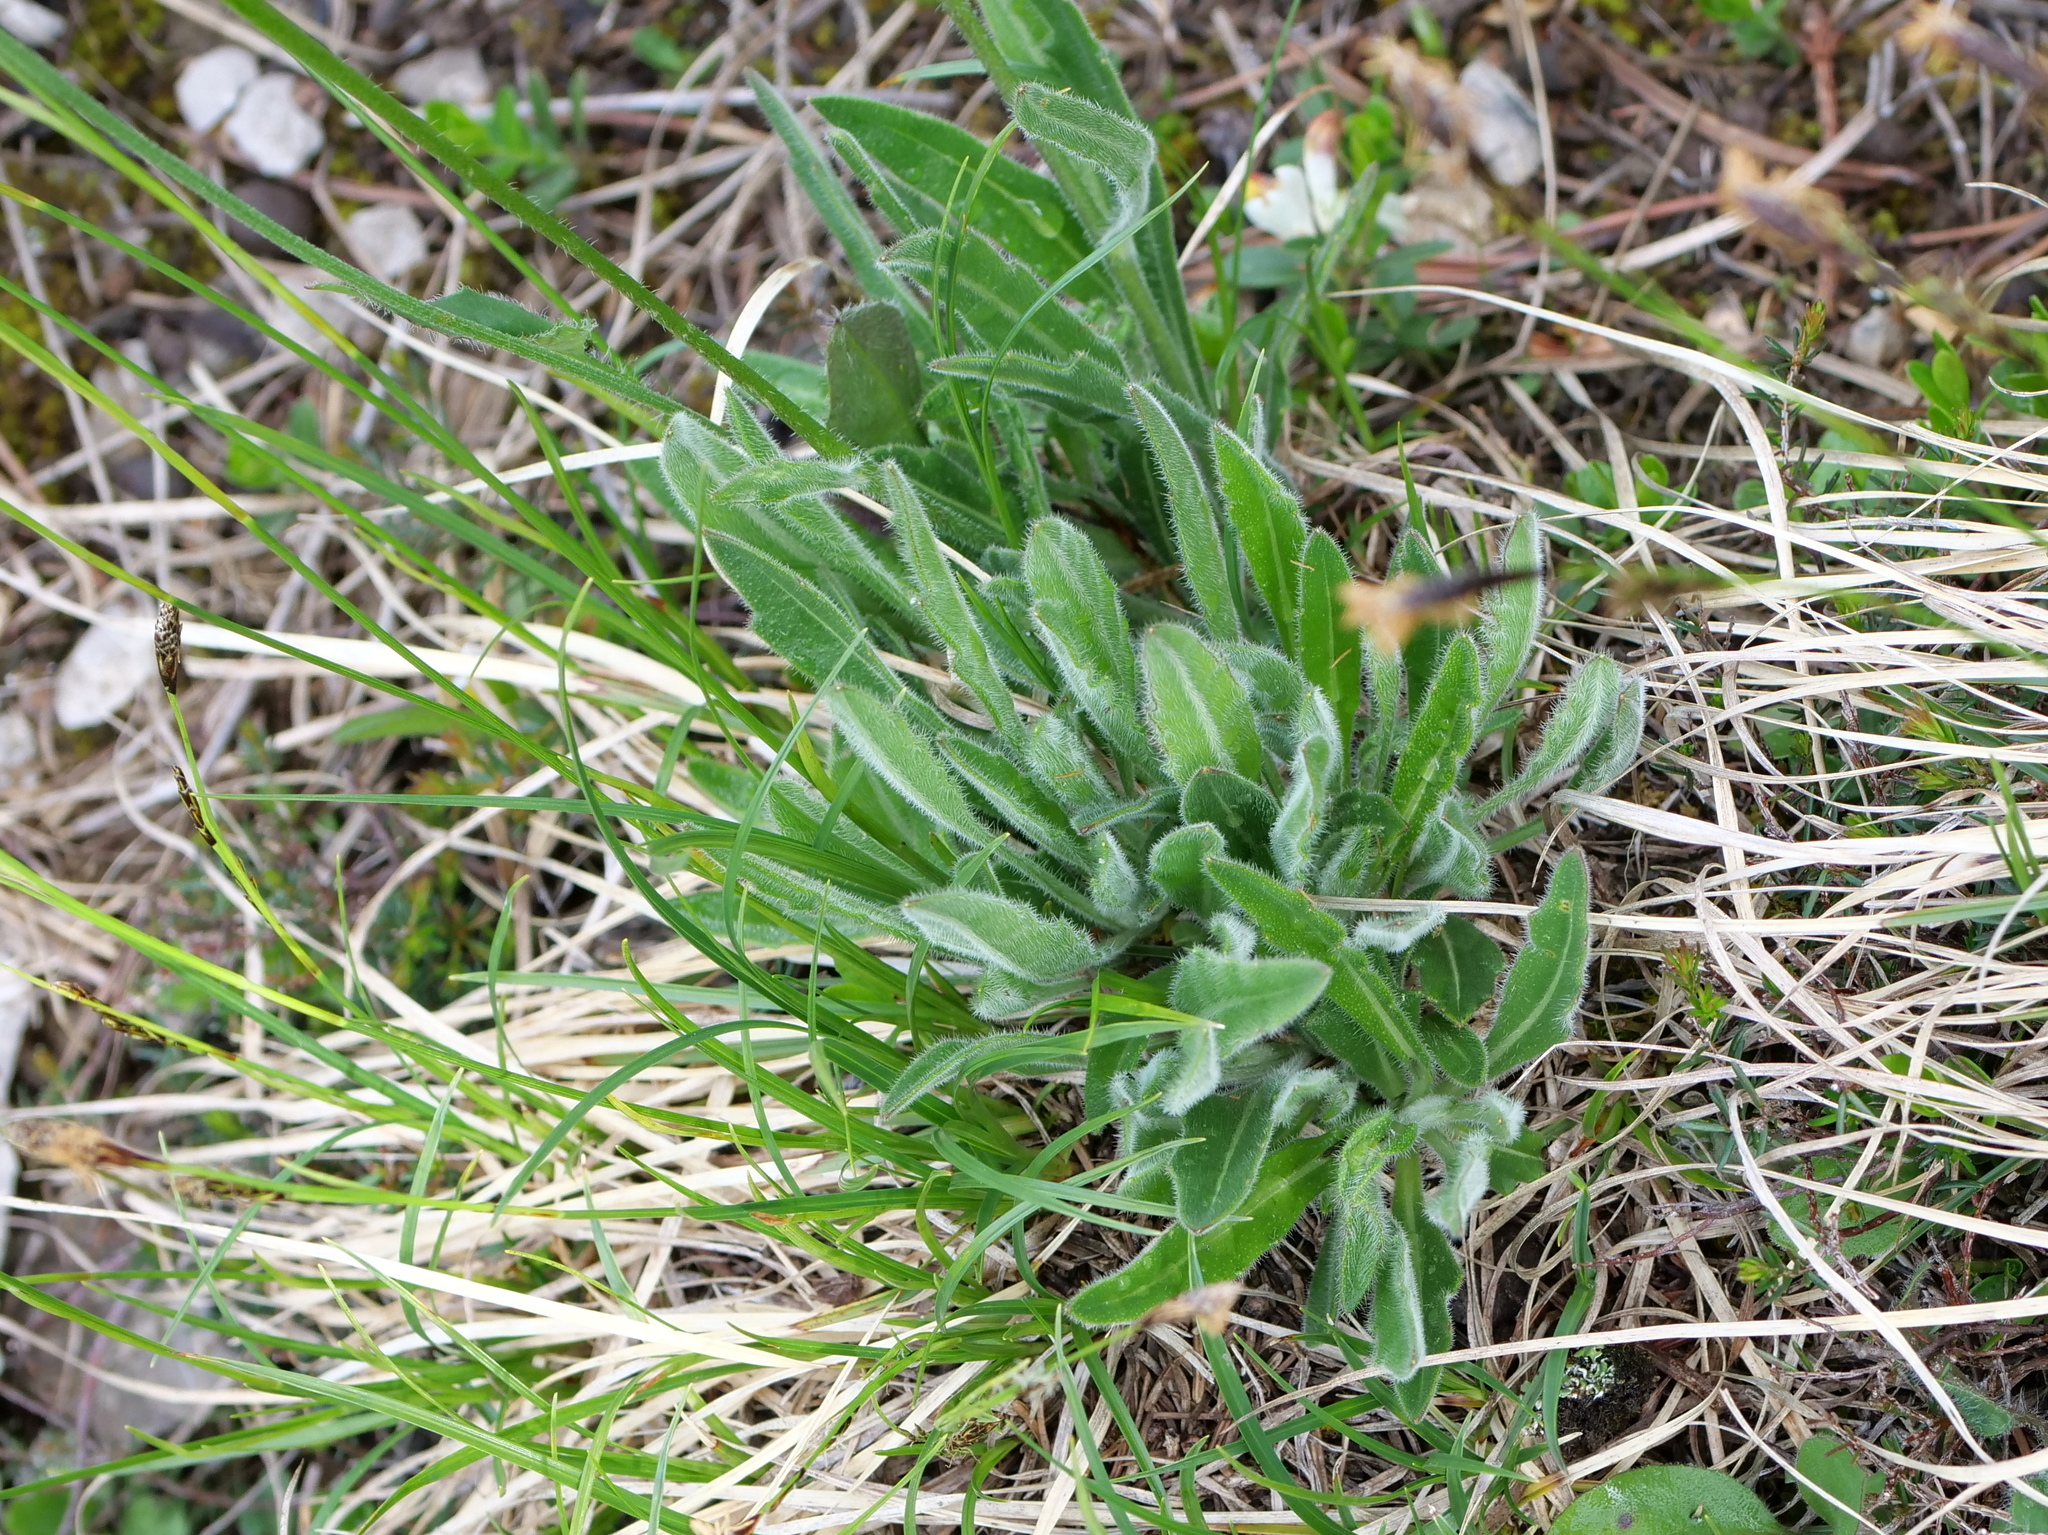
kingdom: Plantae
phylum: Tracheophyta
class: Magnoliopsida
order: Brassicales
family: Brassicaceae
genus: Biscutella
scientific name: Biscutella laevigata
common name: Buckler mustard
